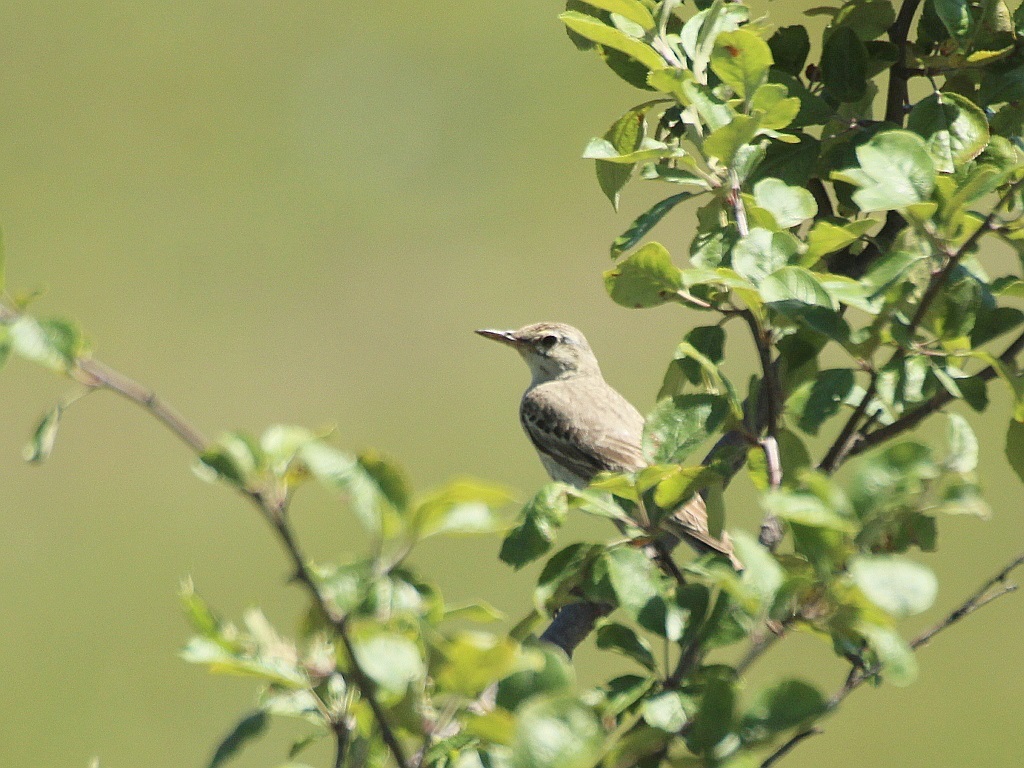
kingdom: Animalia
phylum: Chordata
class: Aves
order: Passeriformes
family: Motacillidae
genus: Anthus
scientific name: Anthus campestris
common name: Tawny pipit
